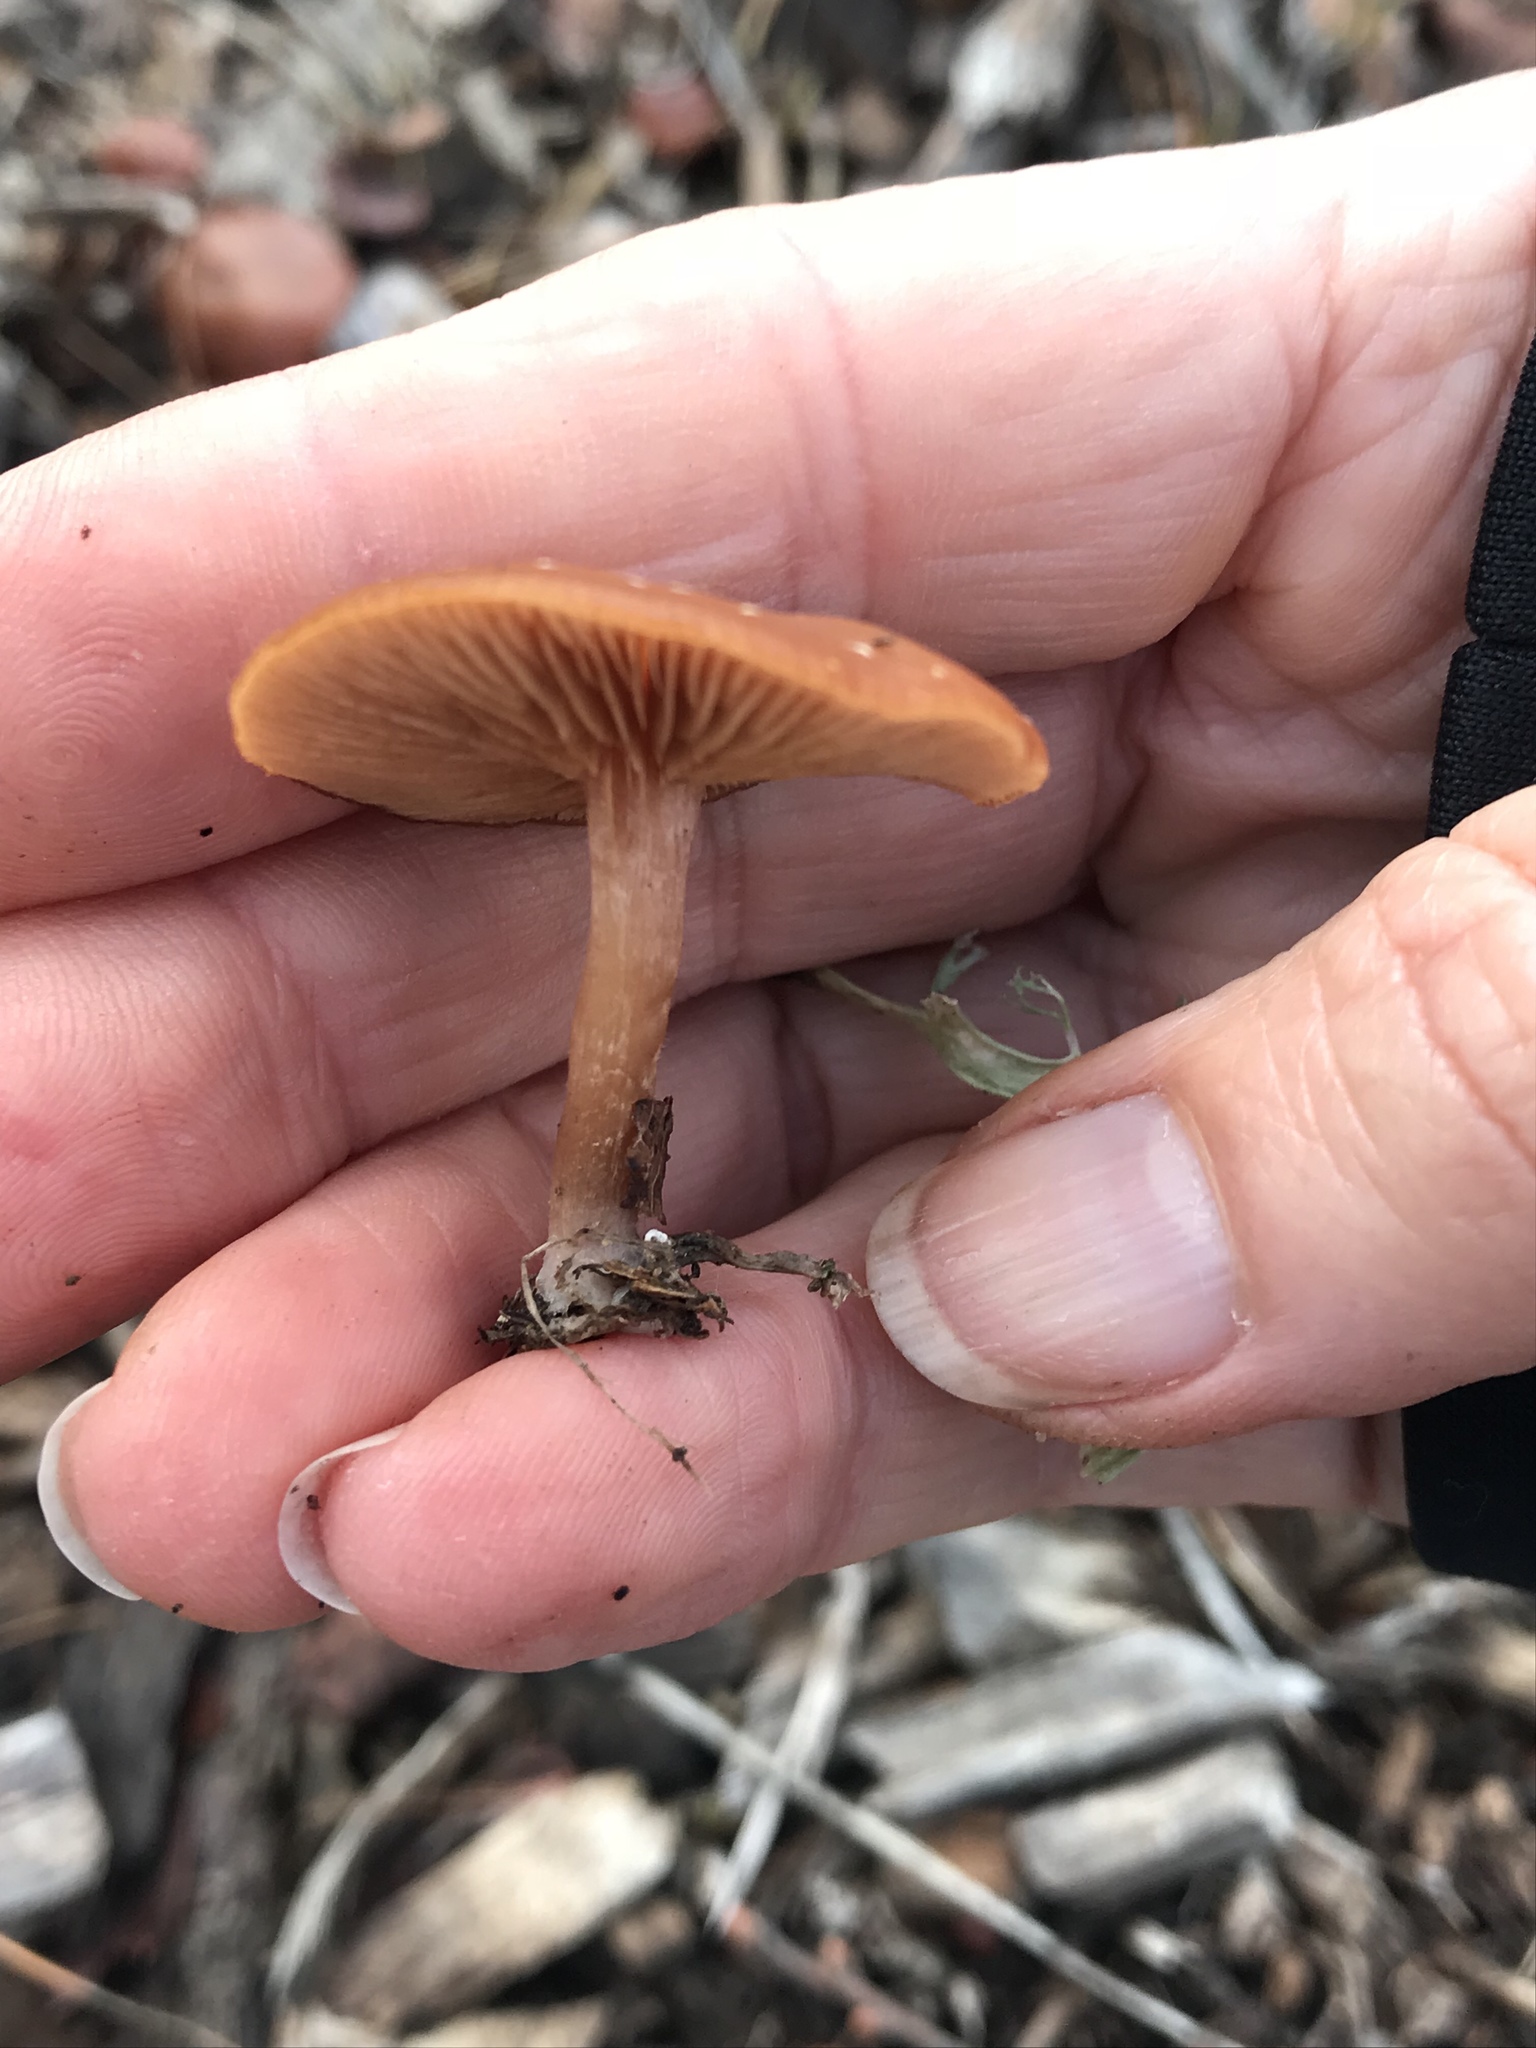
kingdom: Fungi
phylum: Basidiomycota
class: Agaricomycetes
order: Agaricales
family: Tubariaceae
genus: Tubaria
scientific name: Tubaria furfuracea
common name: Scurfy twiglet
